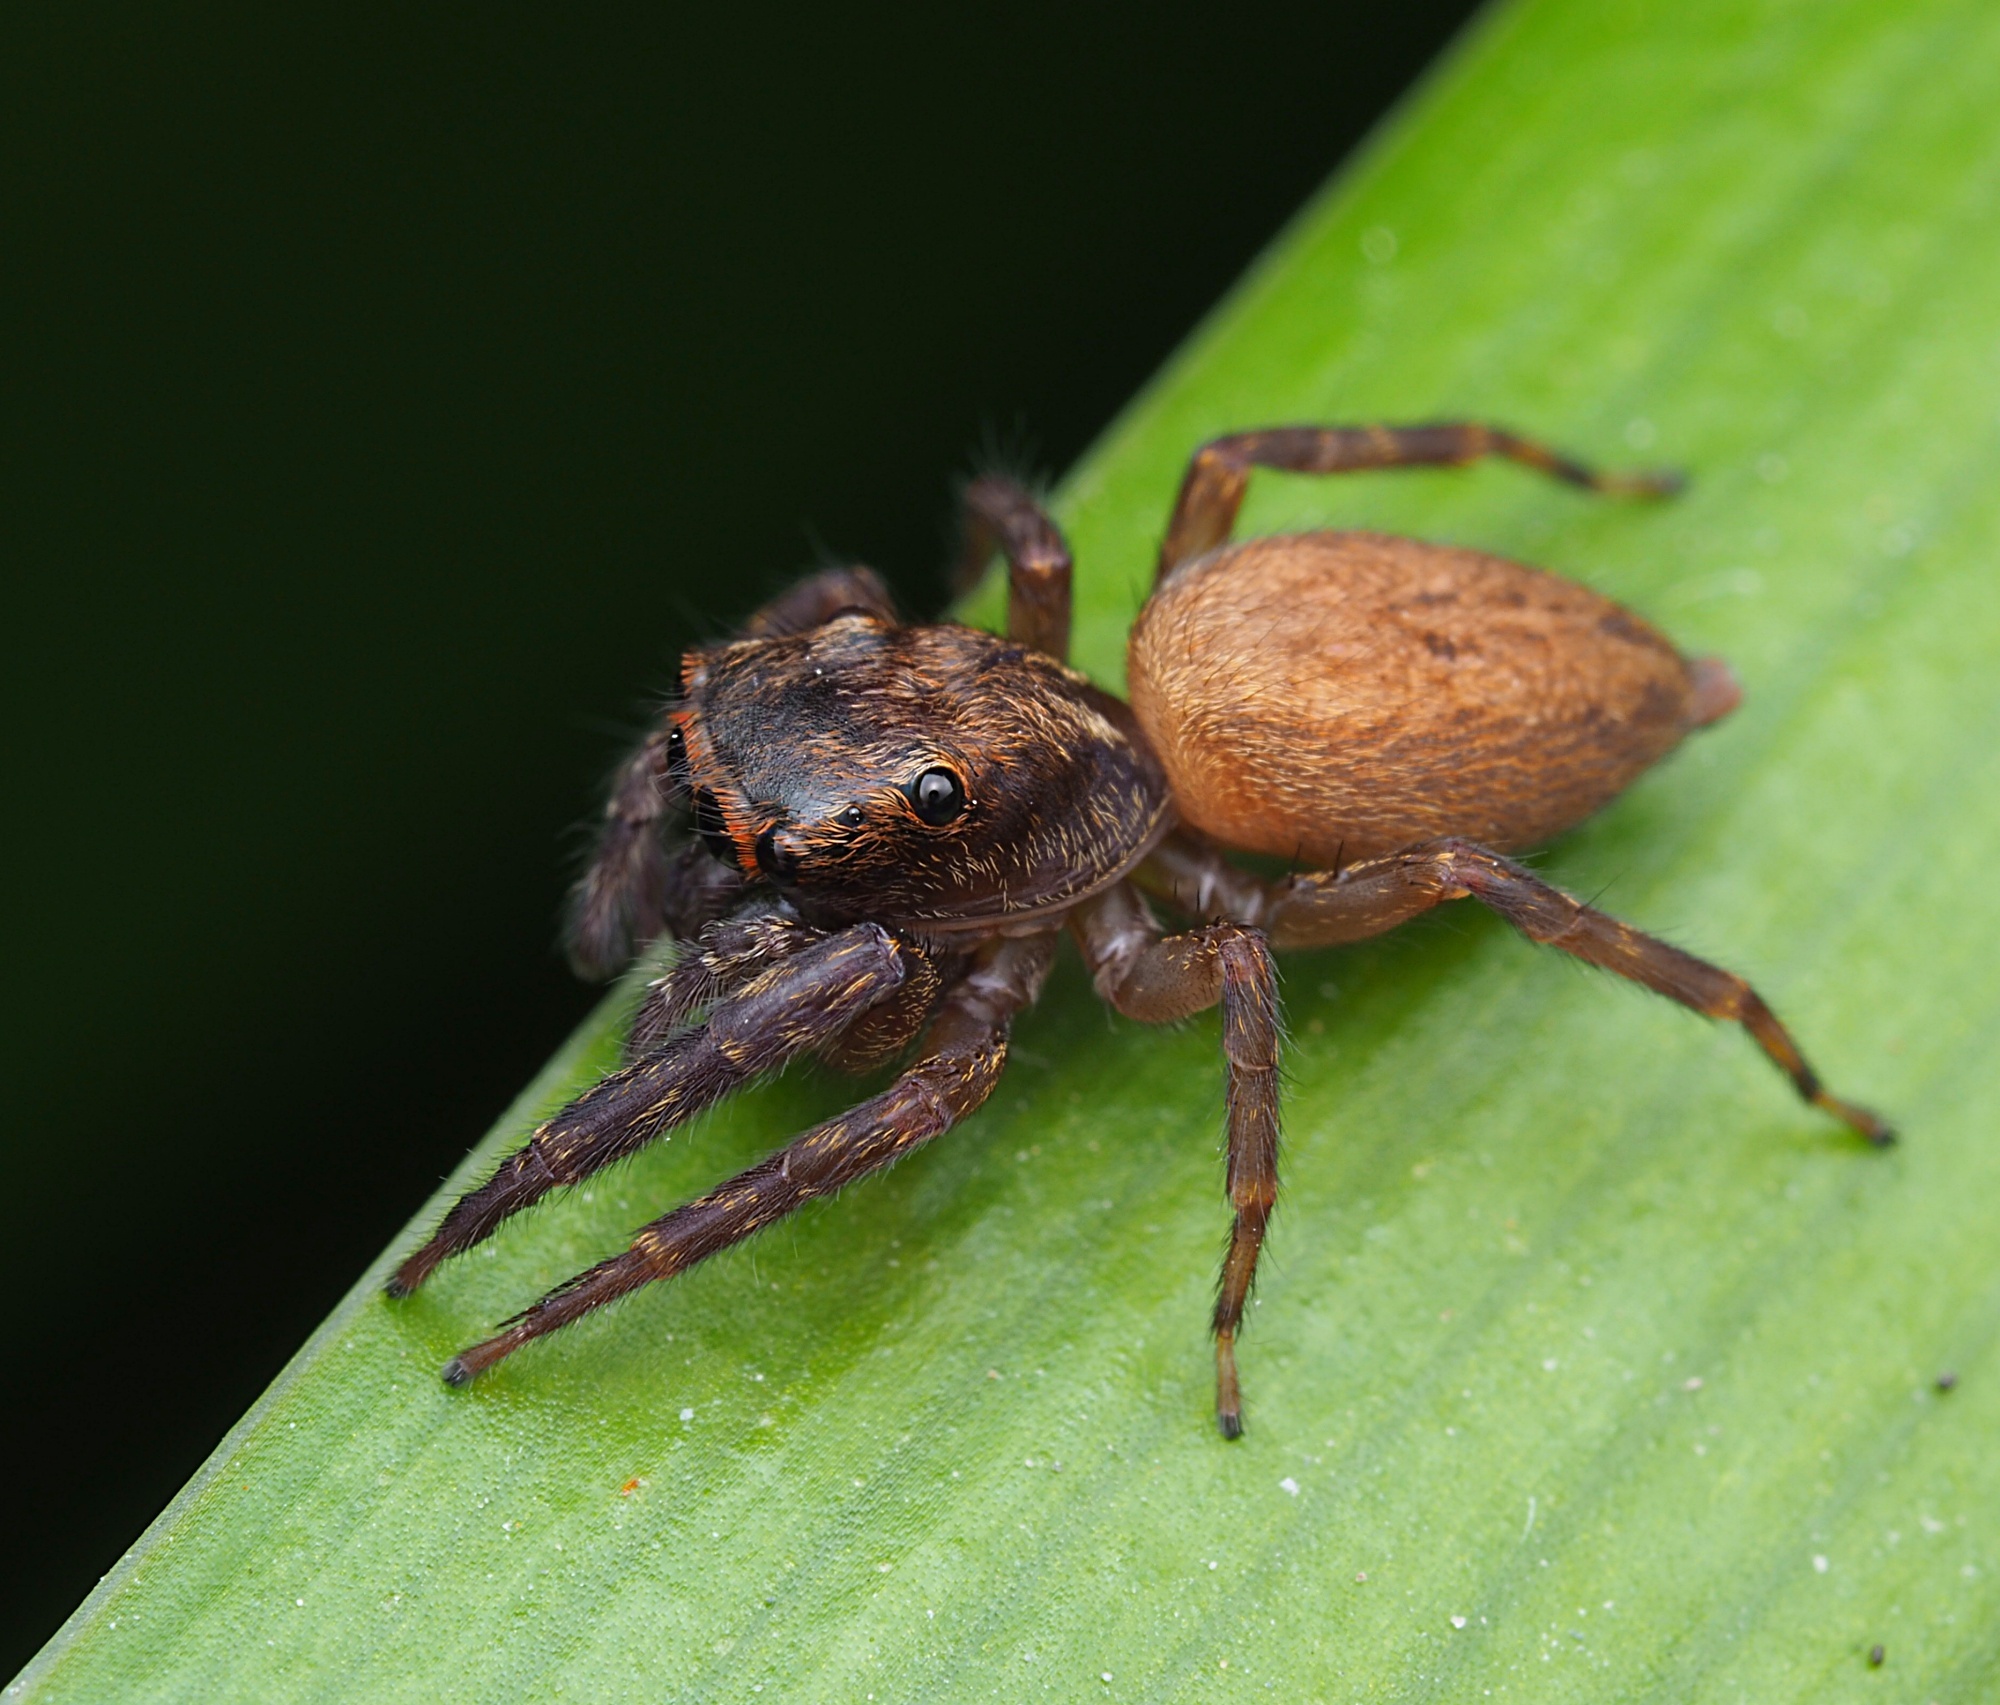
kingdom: Animalia
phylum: Arthropoda
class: Arachnida
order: Araneae
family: Salticidae
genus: Trite
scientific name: Trite auricoma
